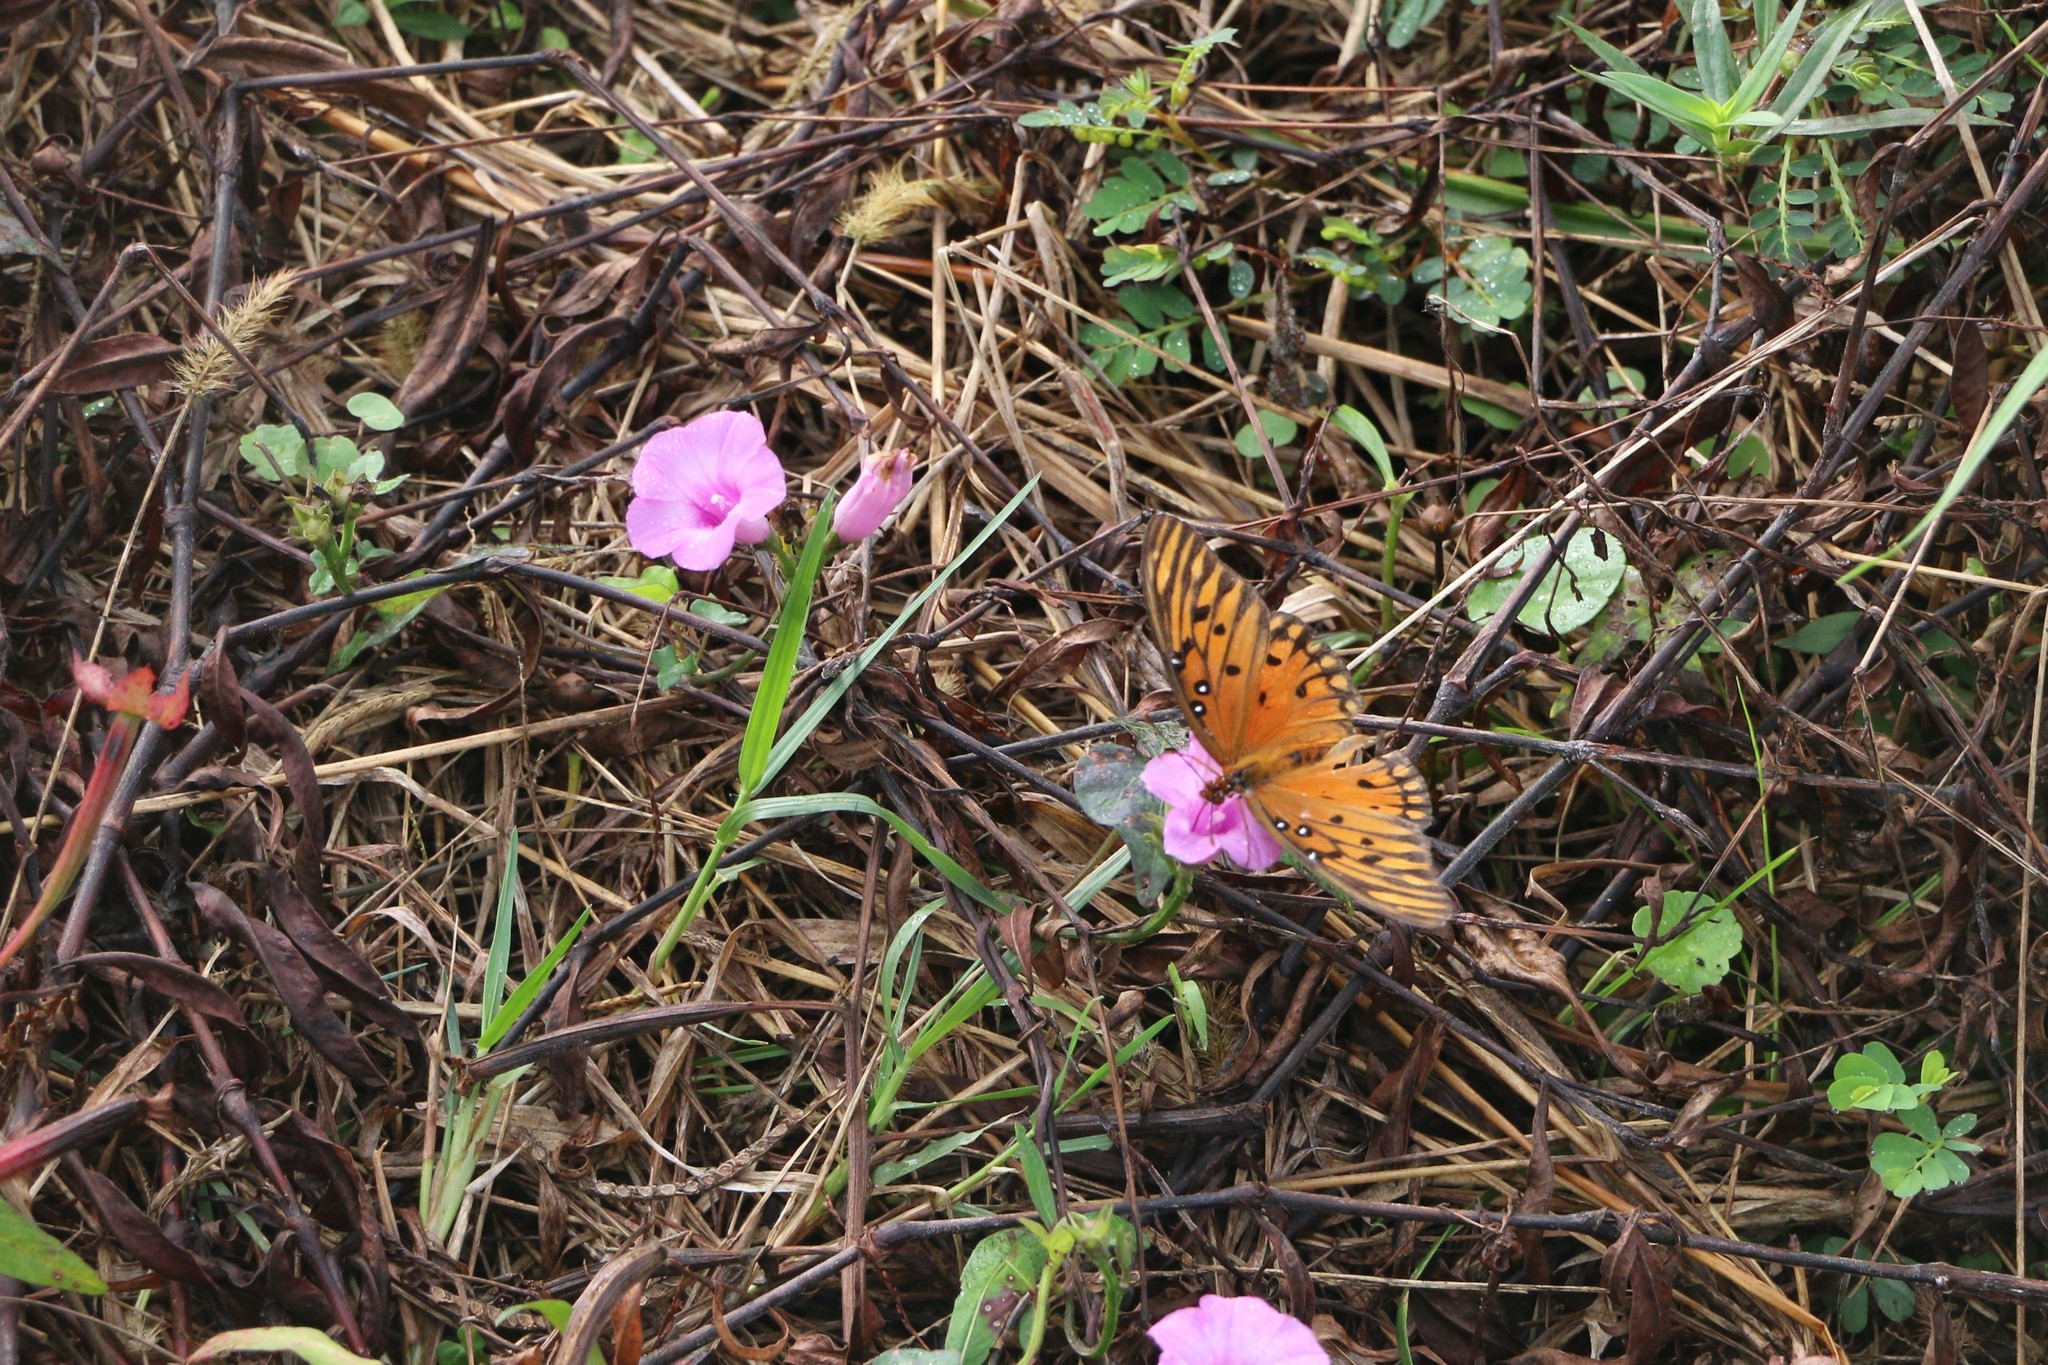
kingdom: Animalia
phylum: Arthropoda
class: Insecta
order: Lepidoptera
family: Nymphalidae
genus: Dione
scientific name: Dione vanillae
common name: Gulf fritillary
